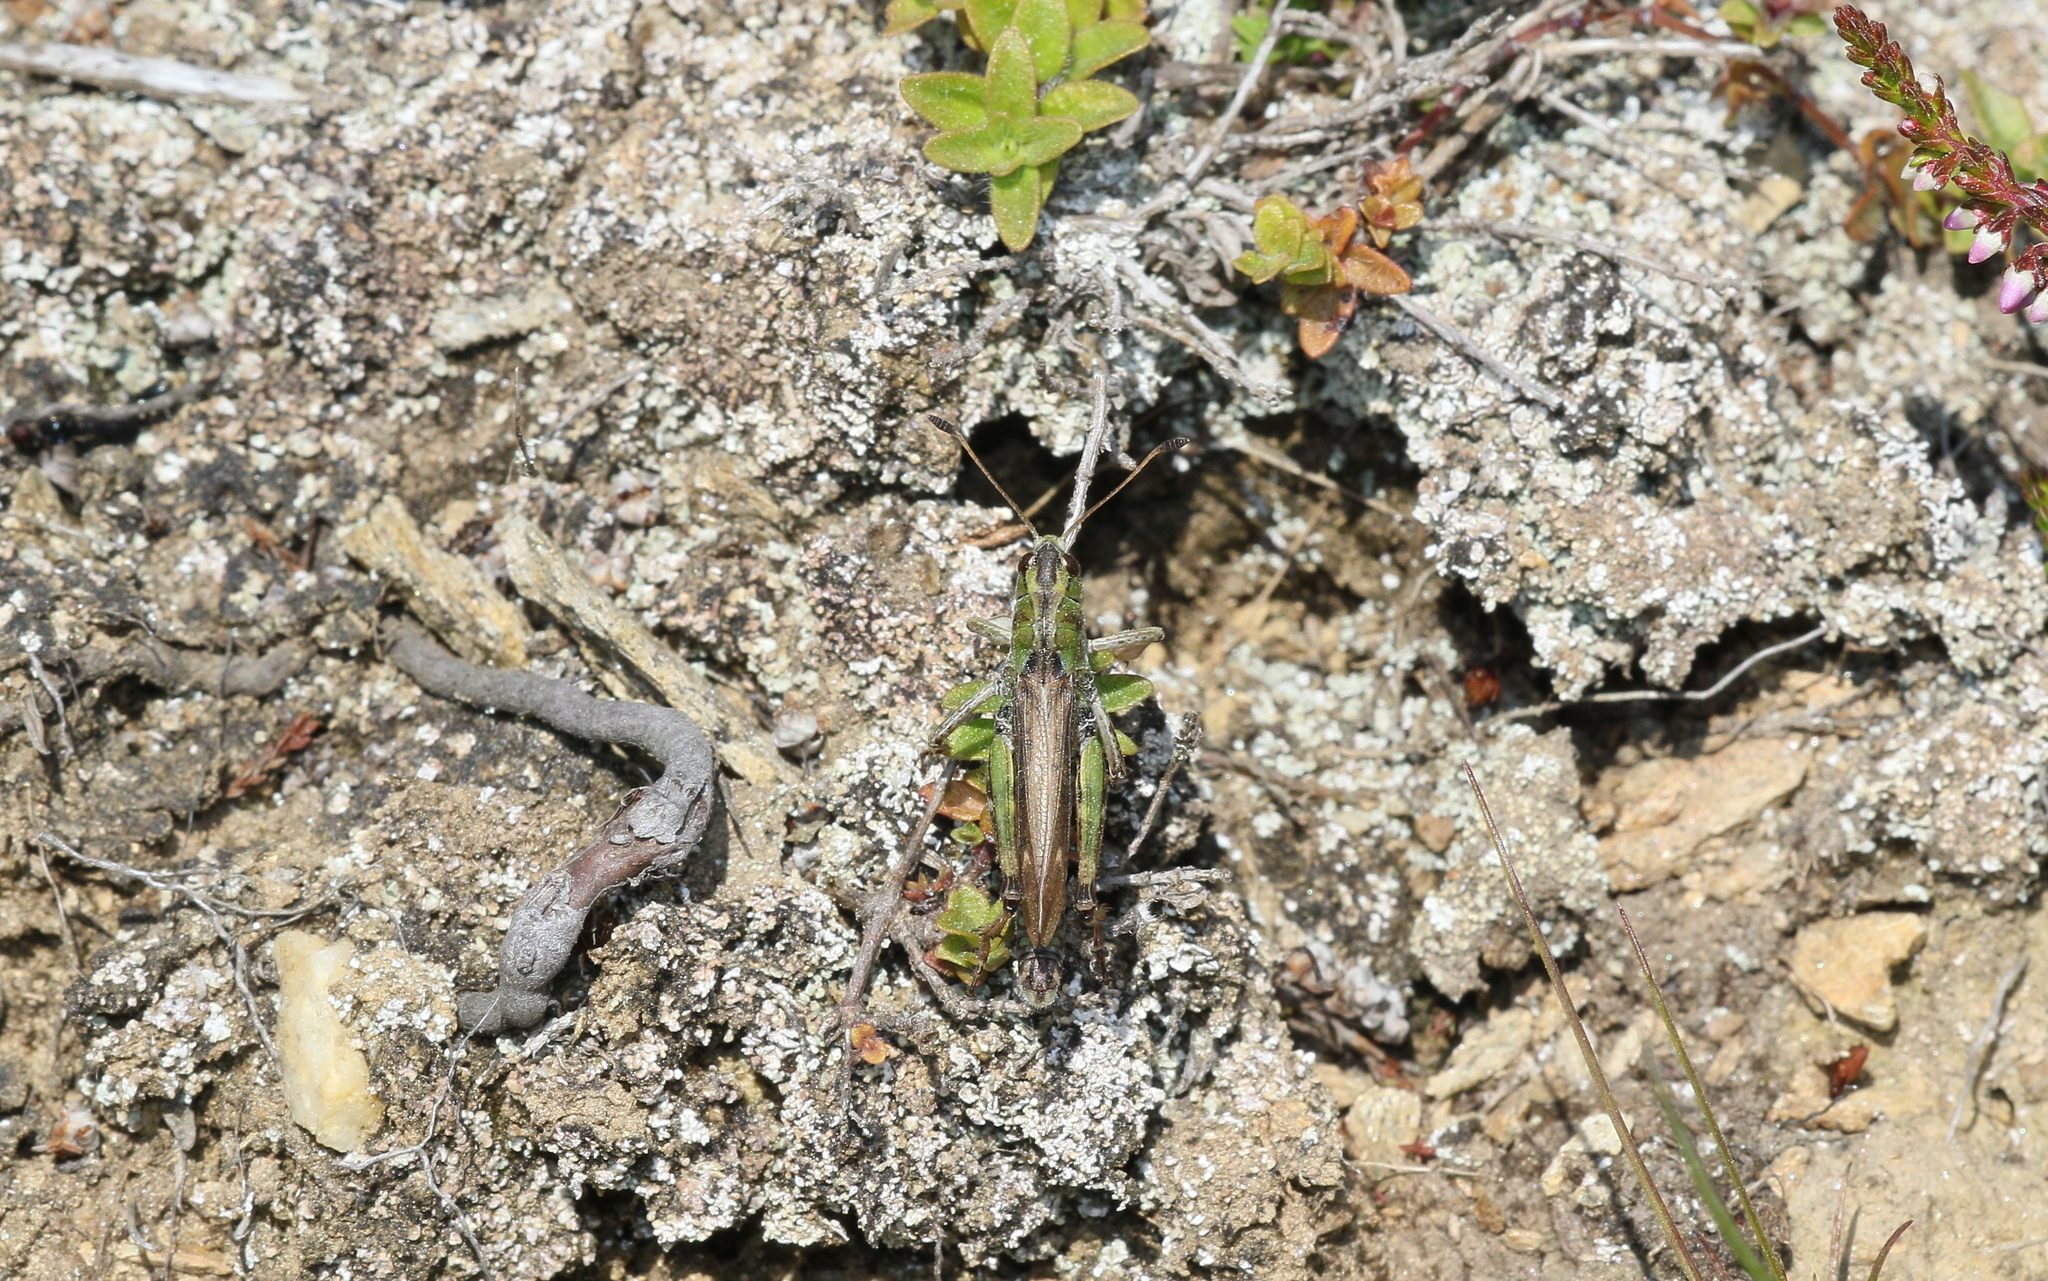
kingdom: Animalia
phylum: Arthropoda
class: Insecta
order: Orthoptera
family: Acrididae
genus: Gomphocerus
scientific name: Gomphocerus sibiricus
